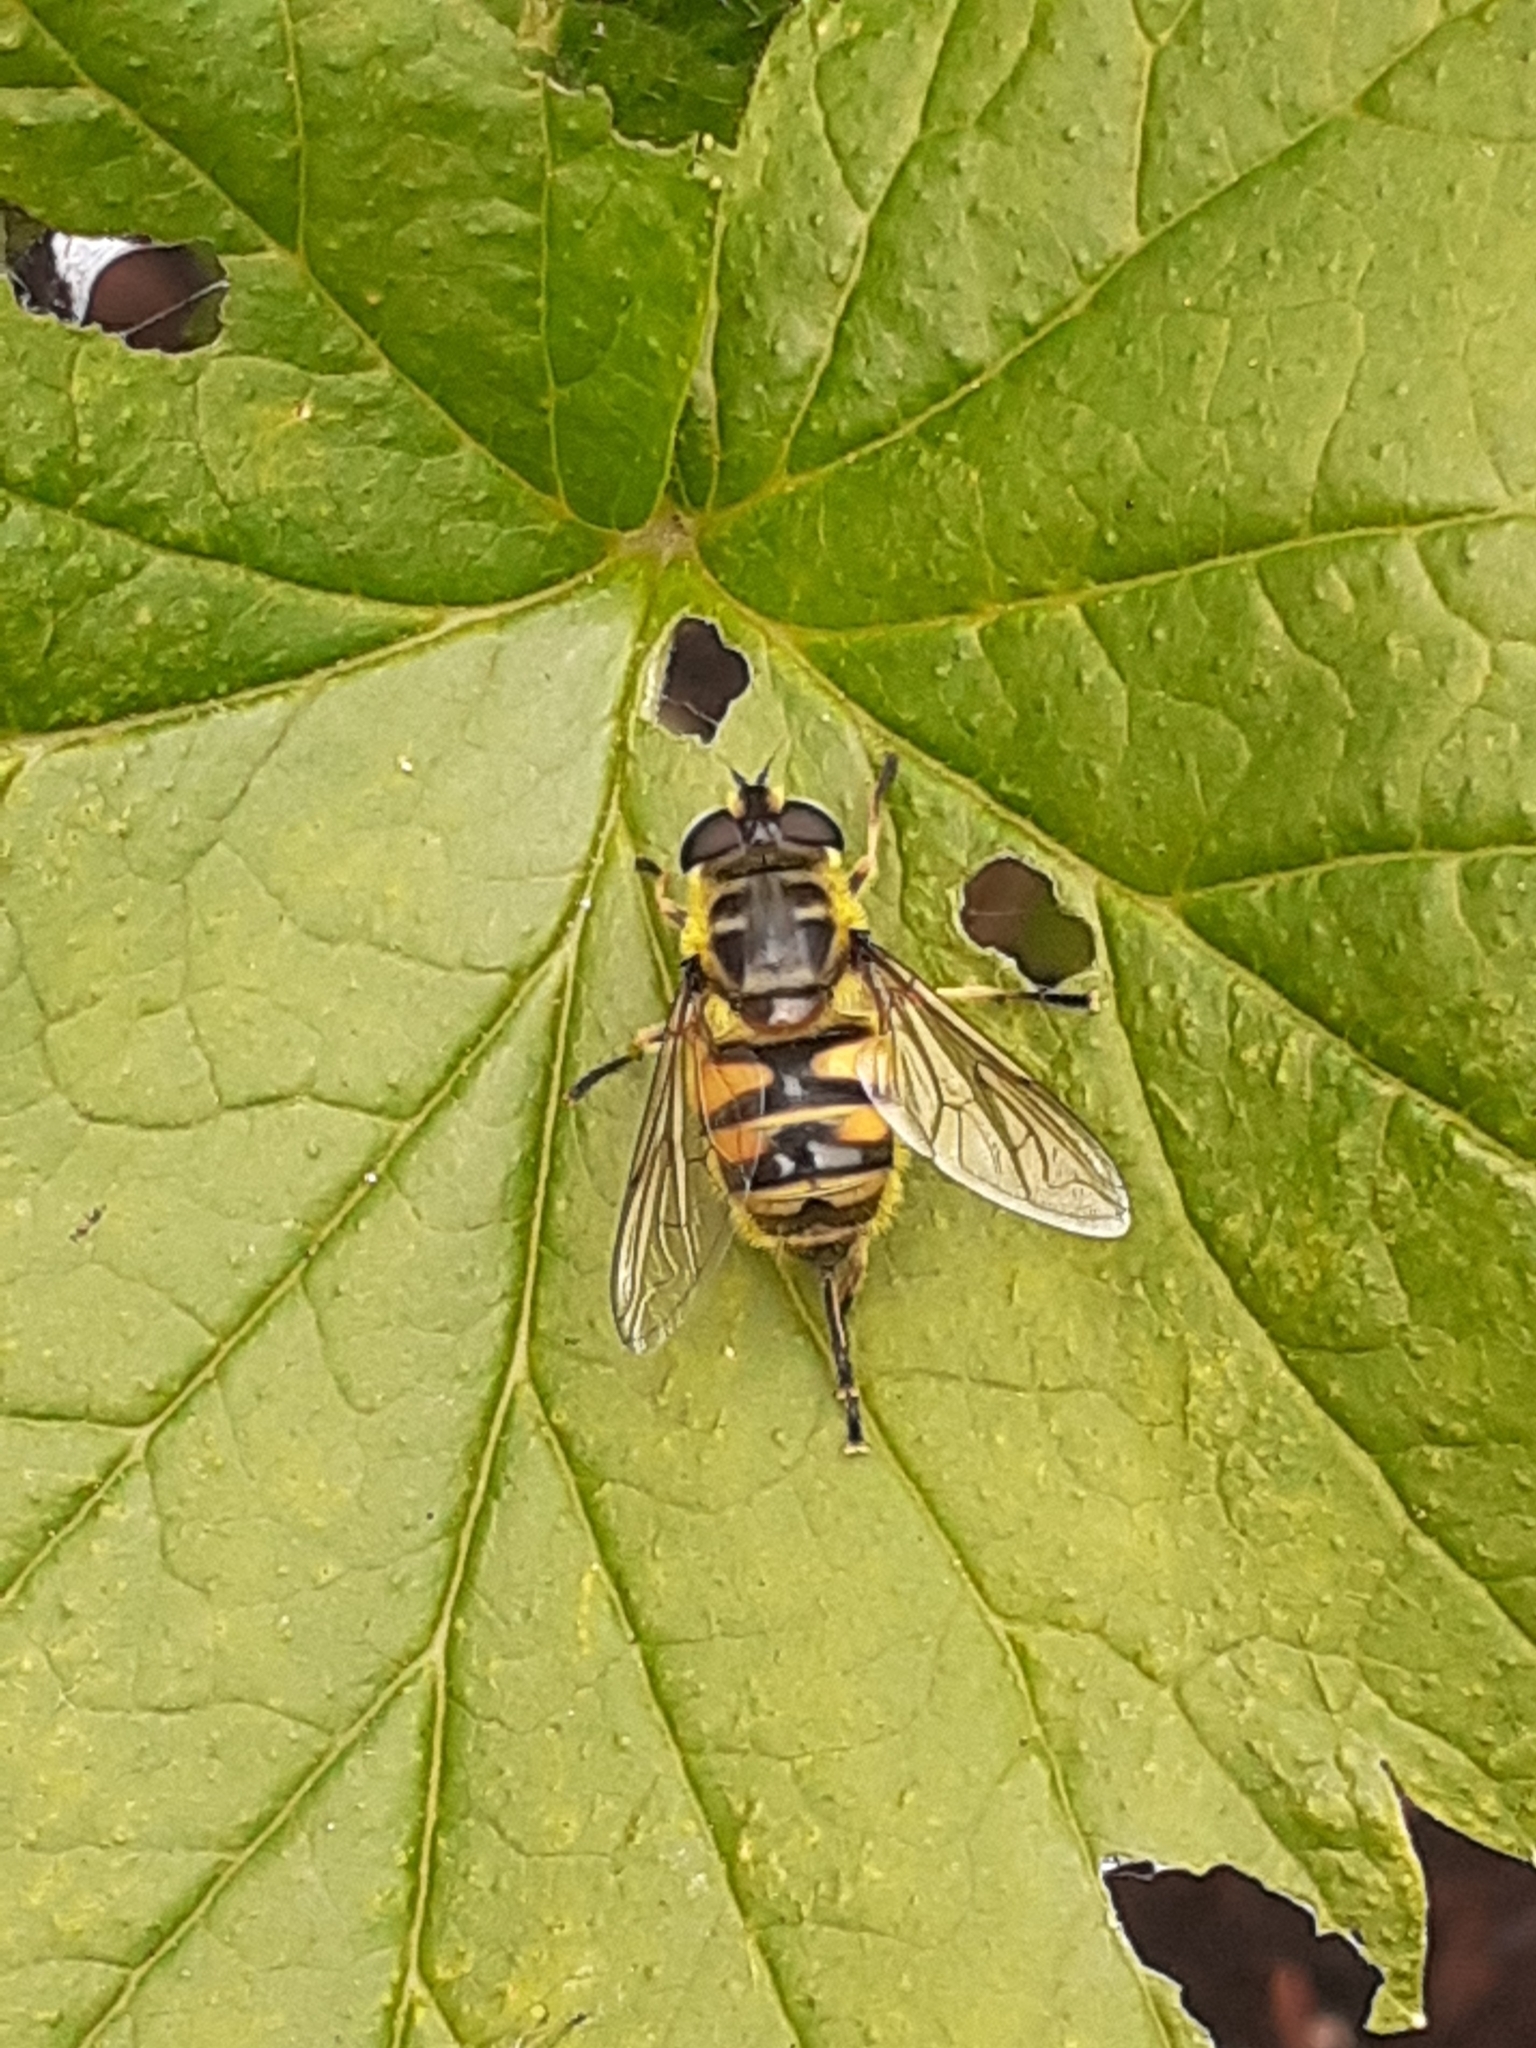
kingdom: Animalia
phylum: Arthropoda
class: Insecta
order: Diptera
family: Syrphidae
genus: Myathropa
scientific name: Myathropa florea
